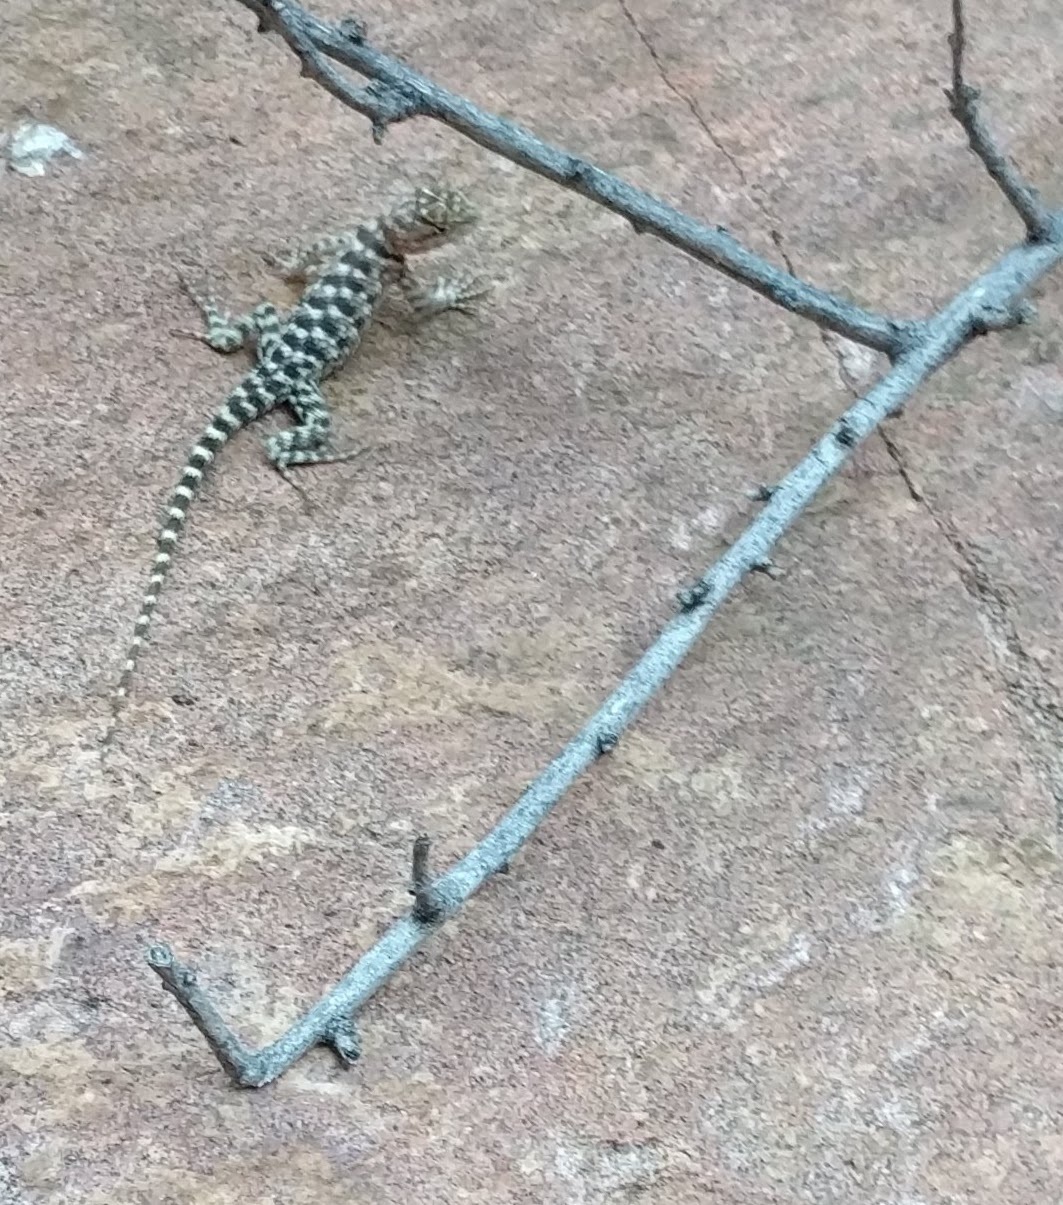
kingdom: Animalia
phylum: Chordata
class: Squamata
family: Phrynosomatidae
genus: Sceloporus
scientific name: Sceloporus magister
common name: Desert spiny lizard
